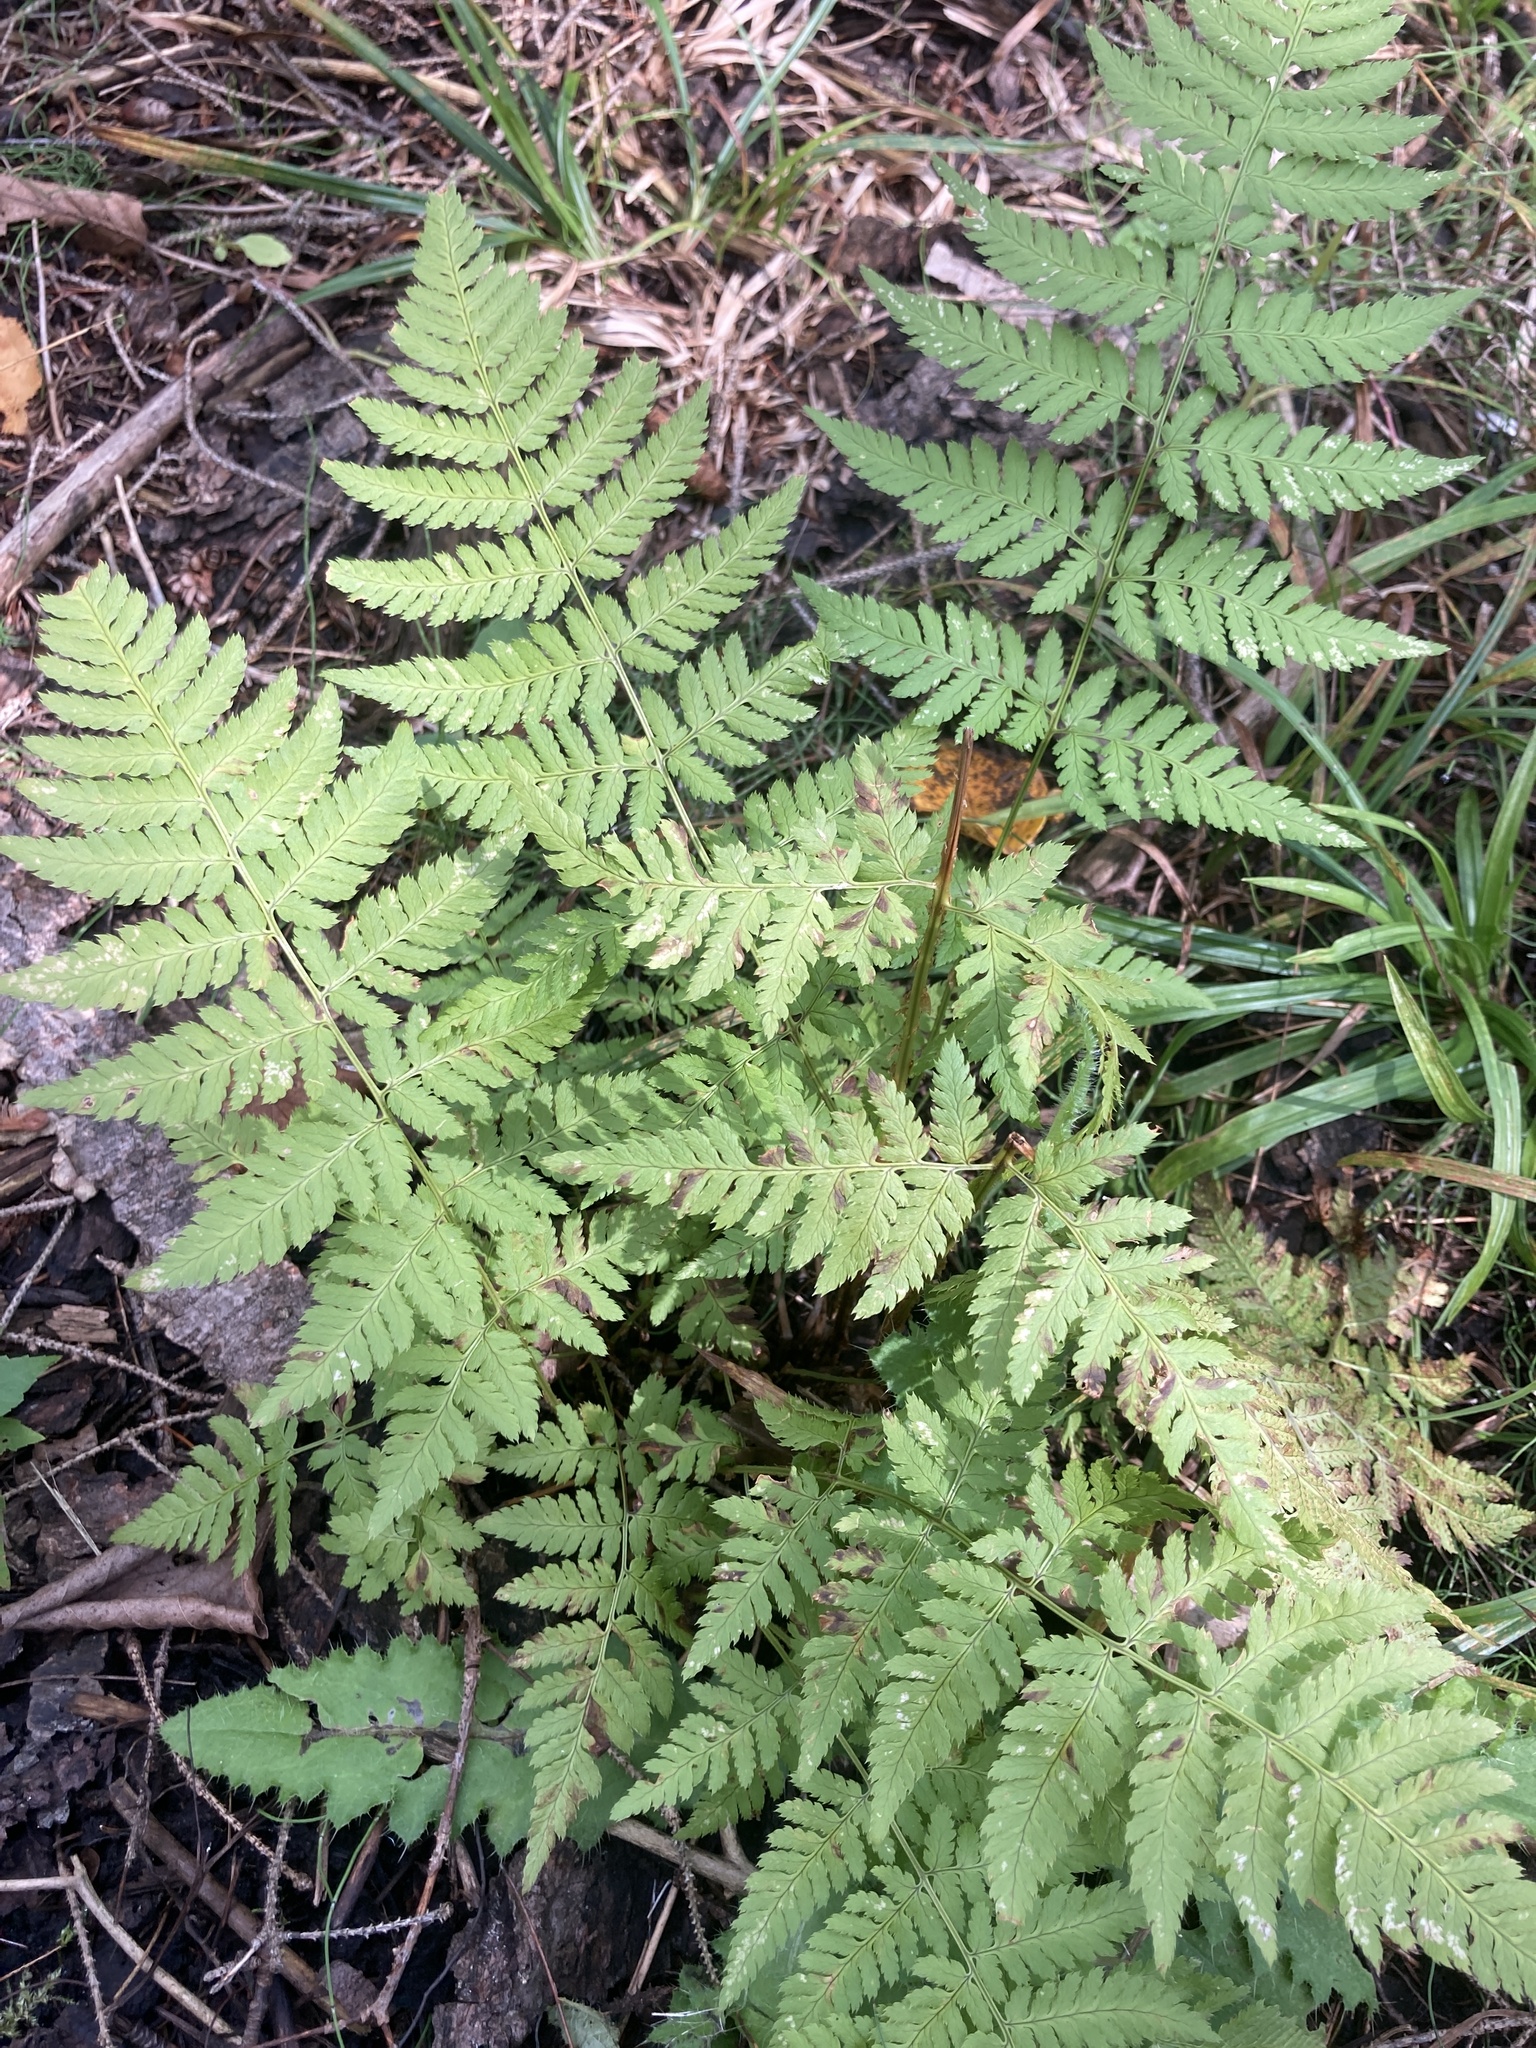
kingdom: Plantae
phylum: Tracheophyta
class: Polypodiopsida
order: Polypodiales
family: Dryopteridaceae
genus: Dryopteris
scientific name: Dryopteris carthusiana
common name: Narrow buckler-fern
